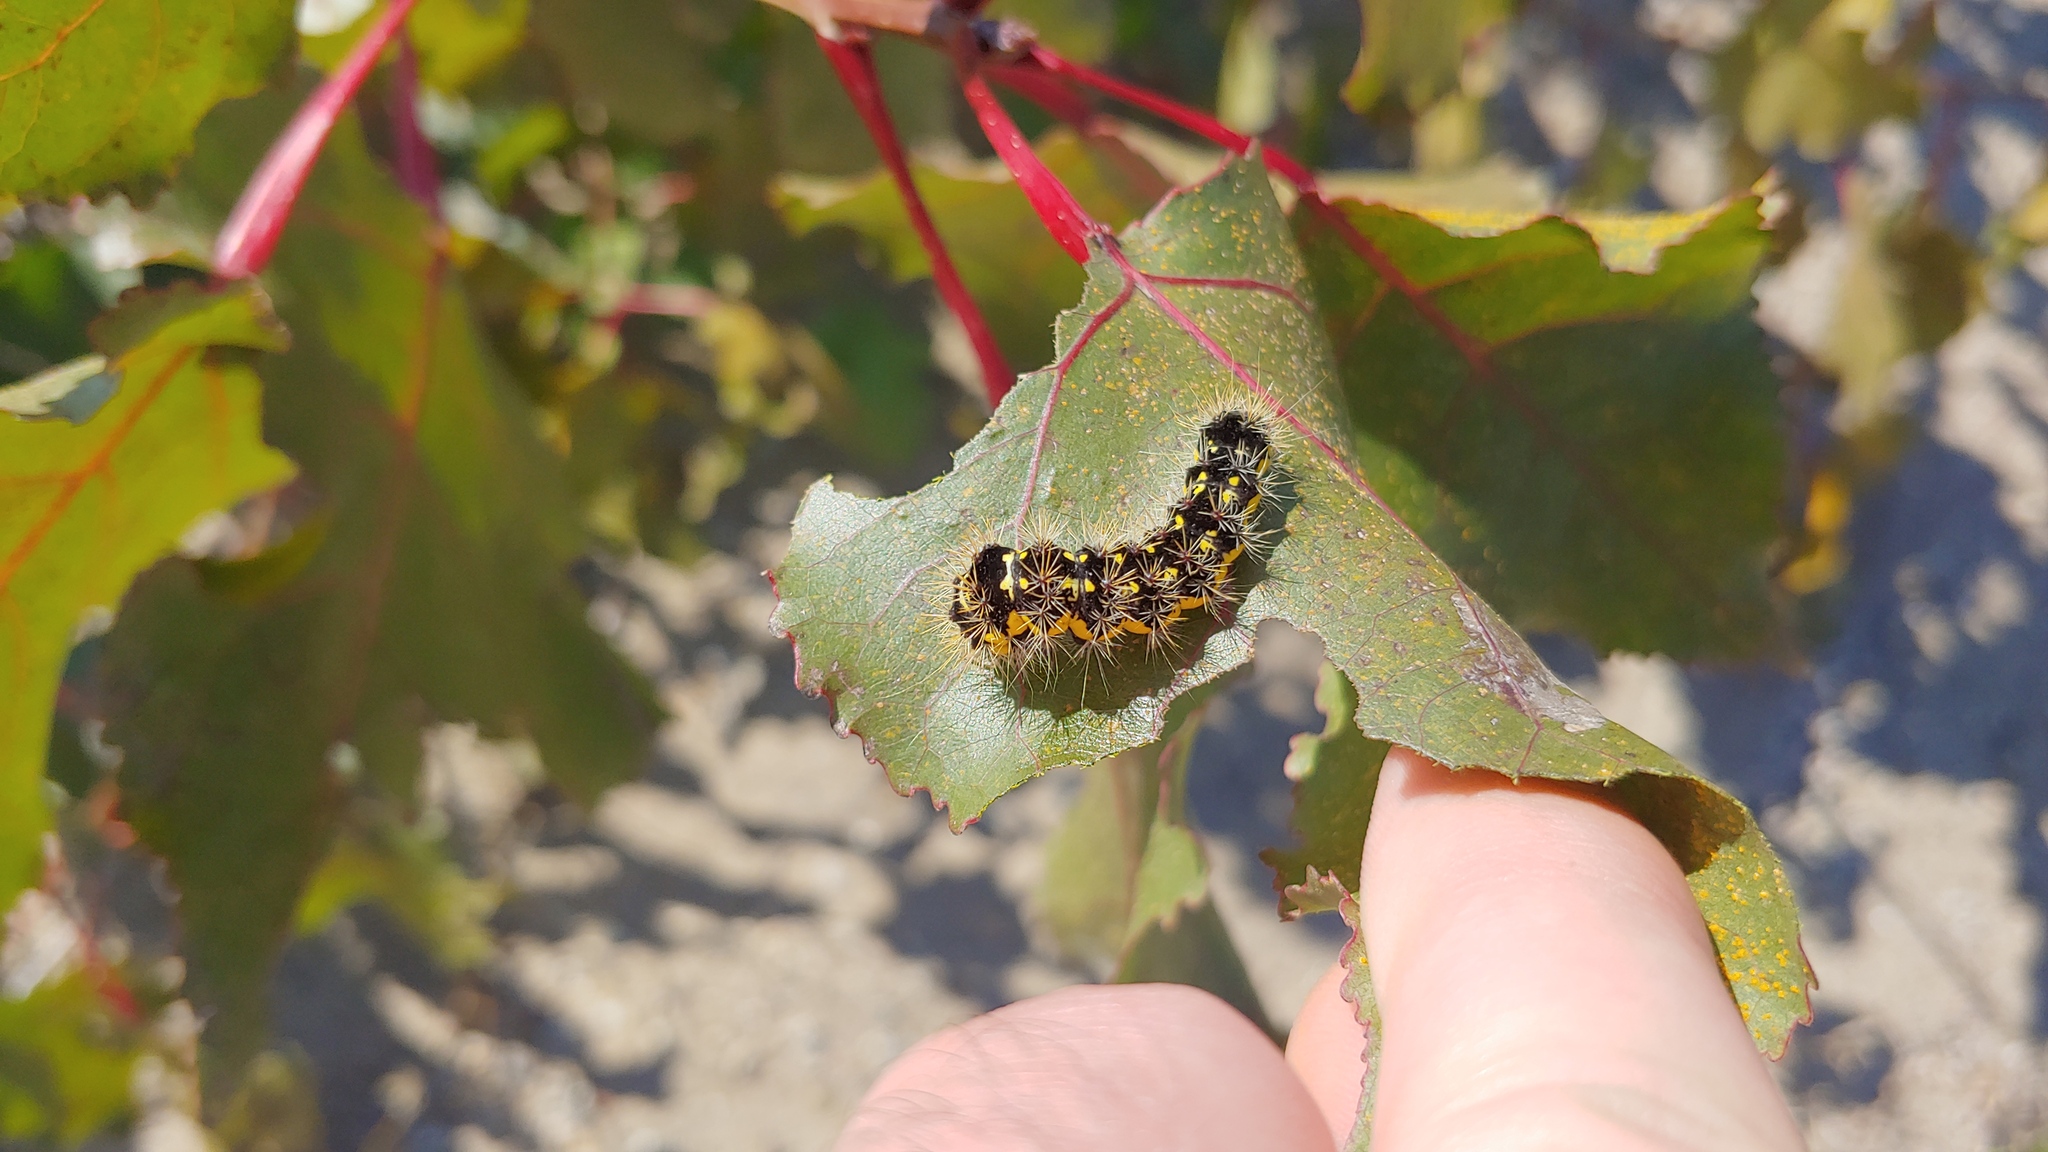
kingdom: Animalia
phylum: Arthropoda
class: Insecta
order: Lepidoptera
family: Noctuidae
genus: Acronicta
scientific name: Acronicta oblinita
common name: Smeared dagger
